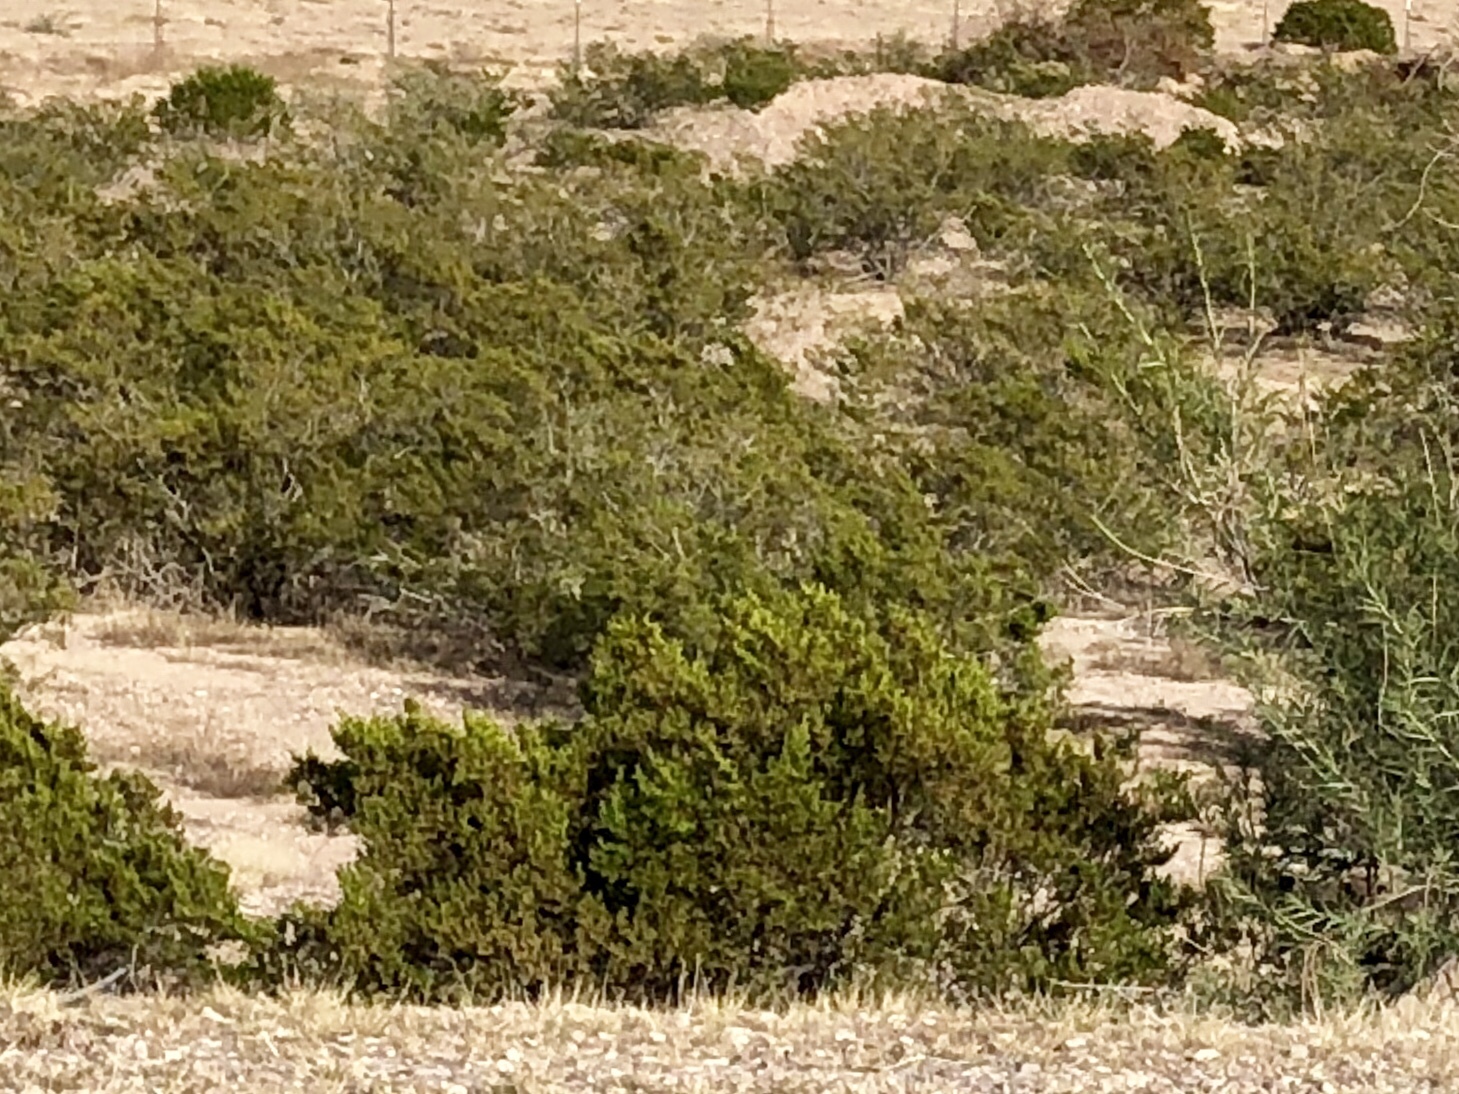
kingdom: Plantae
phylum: Tracheophyta
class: Magnoliopsida
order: Zygophyllales
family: Zygophyllaceae
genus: Larrea
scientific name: Larrea tridentata
